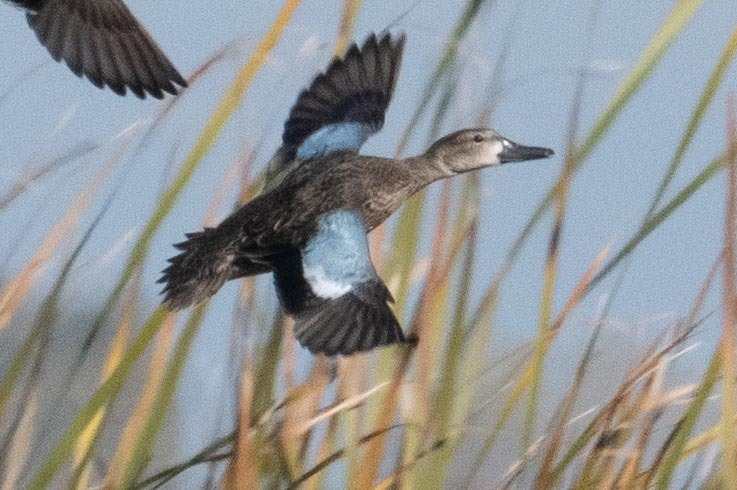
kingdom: Animalia
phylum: Chordata
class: Aves
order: Anseriformes
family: Anatidae
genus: Spatula
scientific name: Spatula discors
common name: Blue-winged teal
